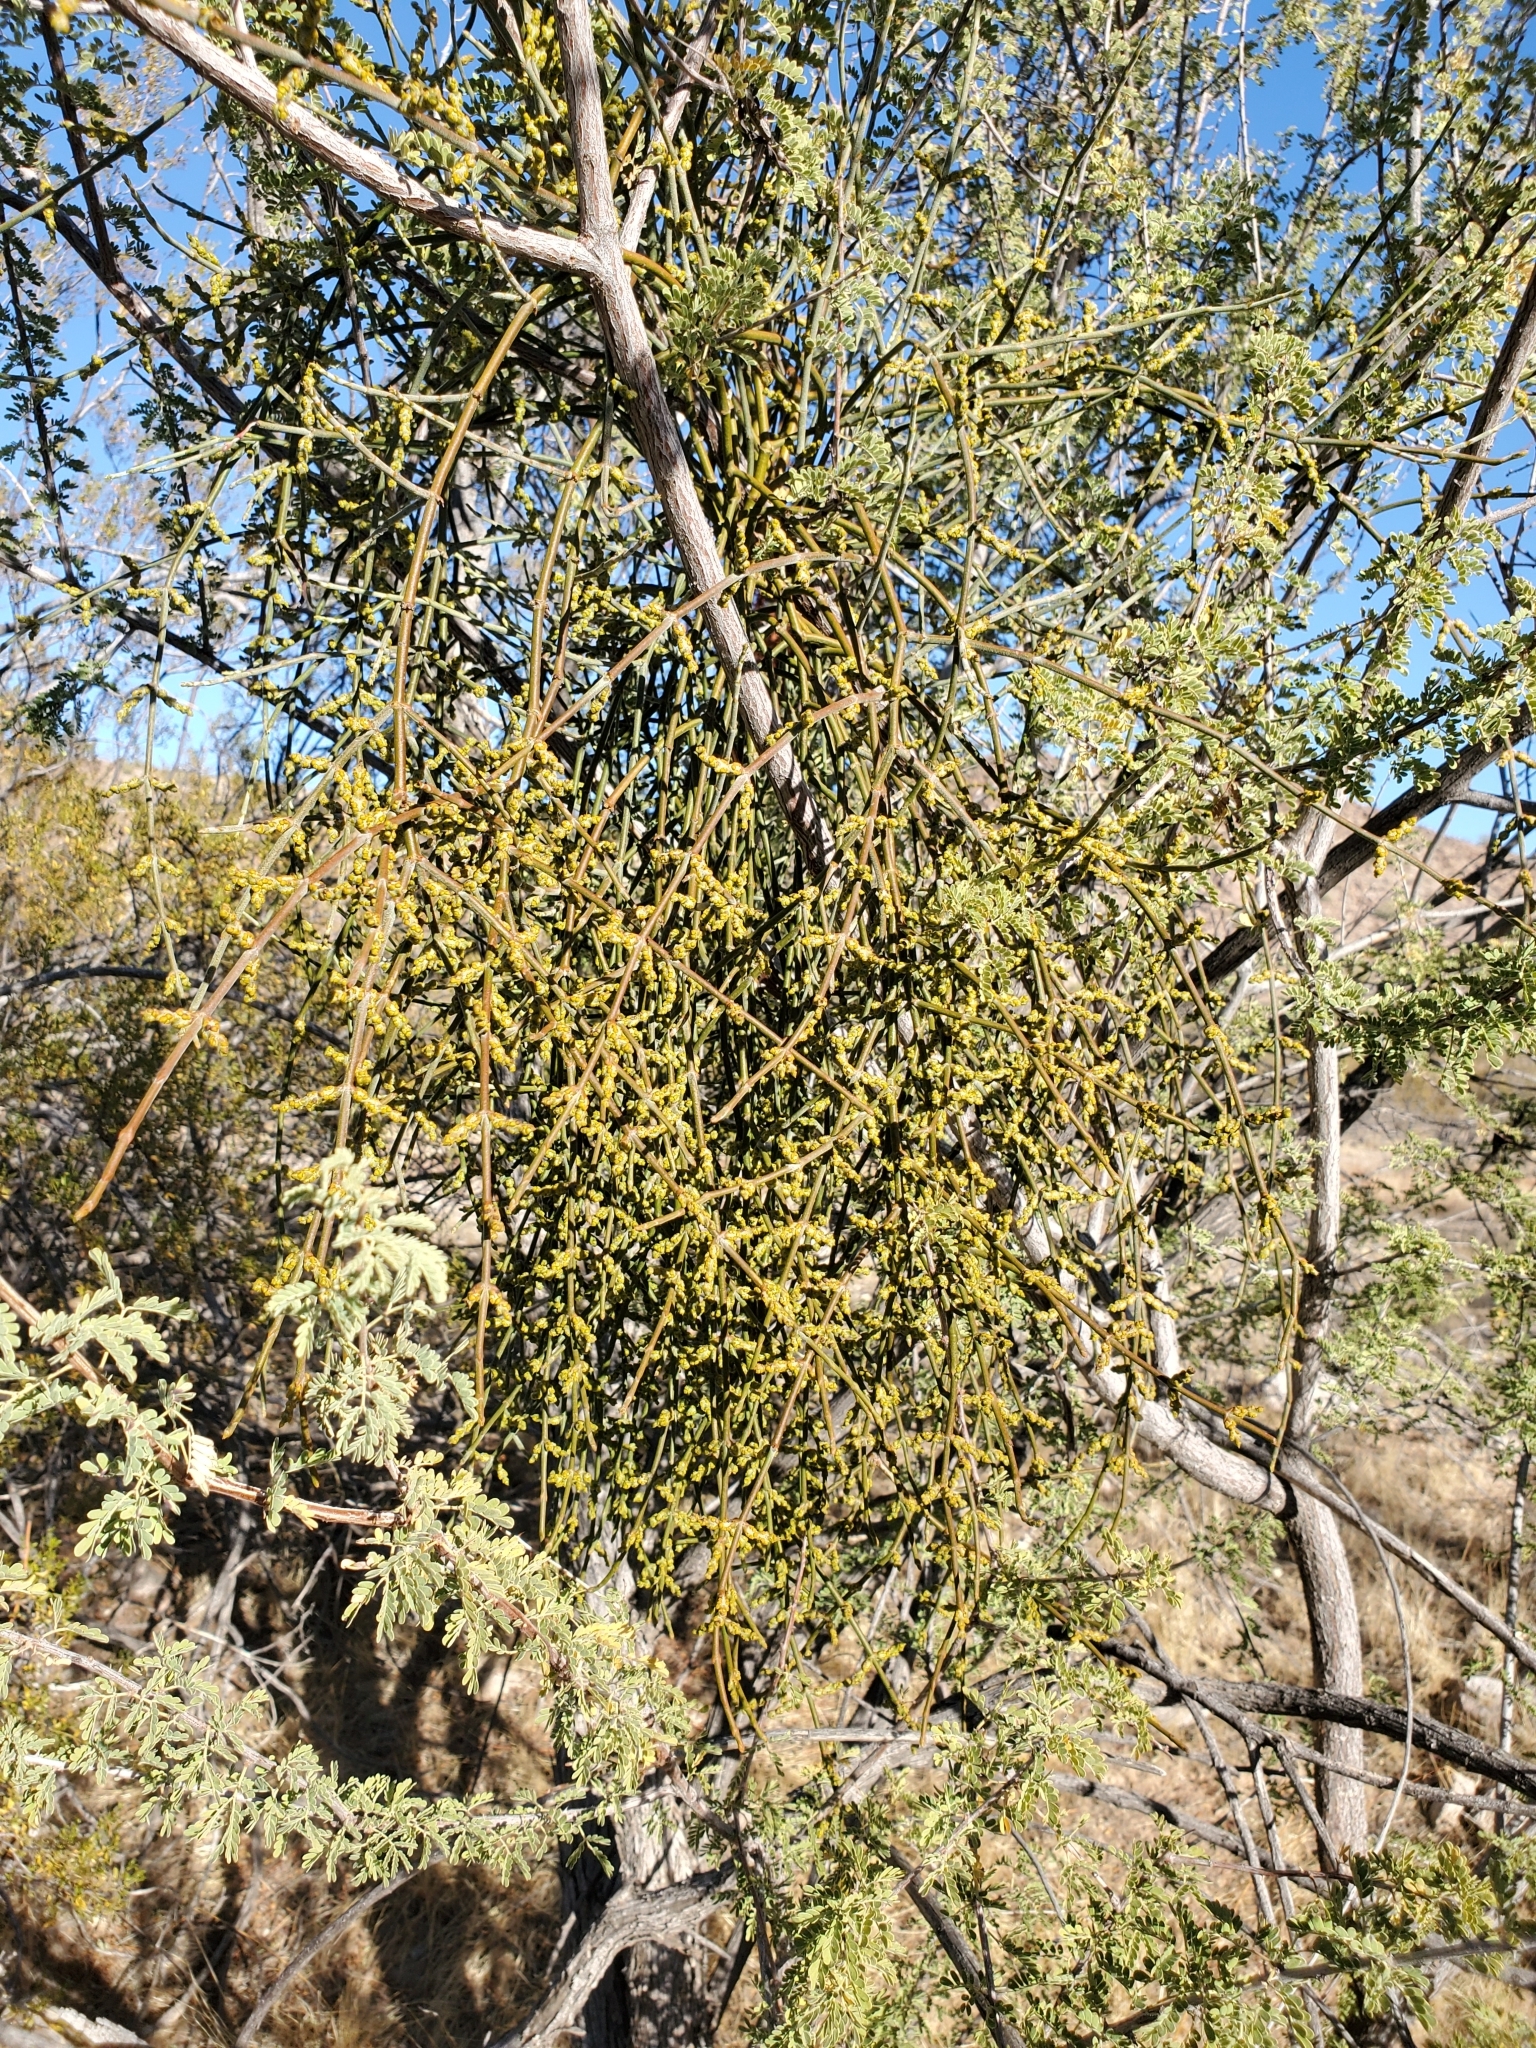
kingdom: Plantae
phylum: Tracheophyta
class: Magnoliopsida
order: Santalales
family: Viscaceae
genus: Phoradendron
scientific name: Phoradendron californicum
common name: Acacia mistletoe
